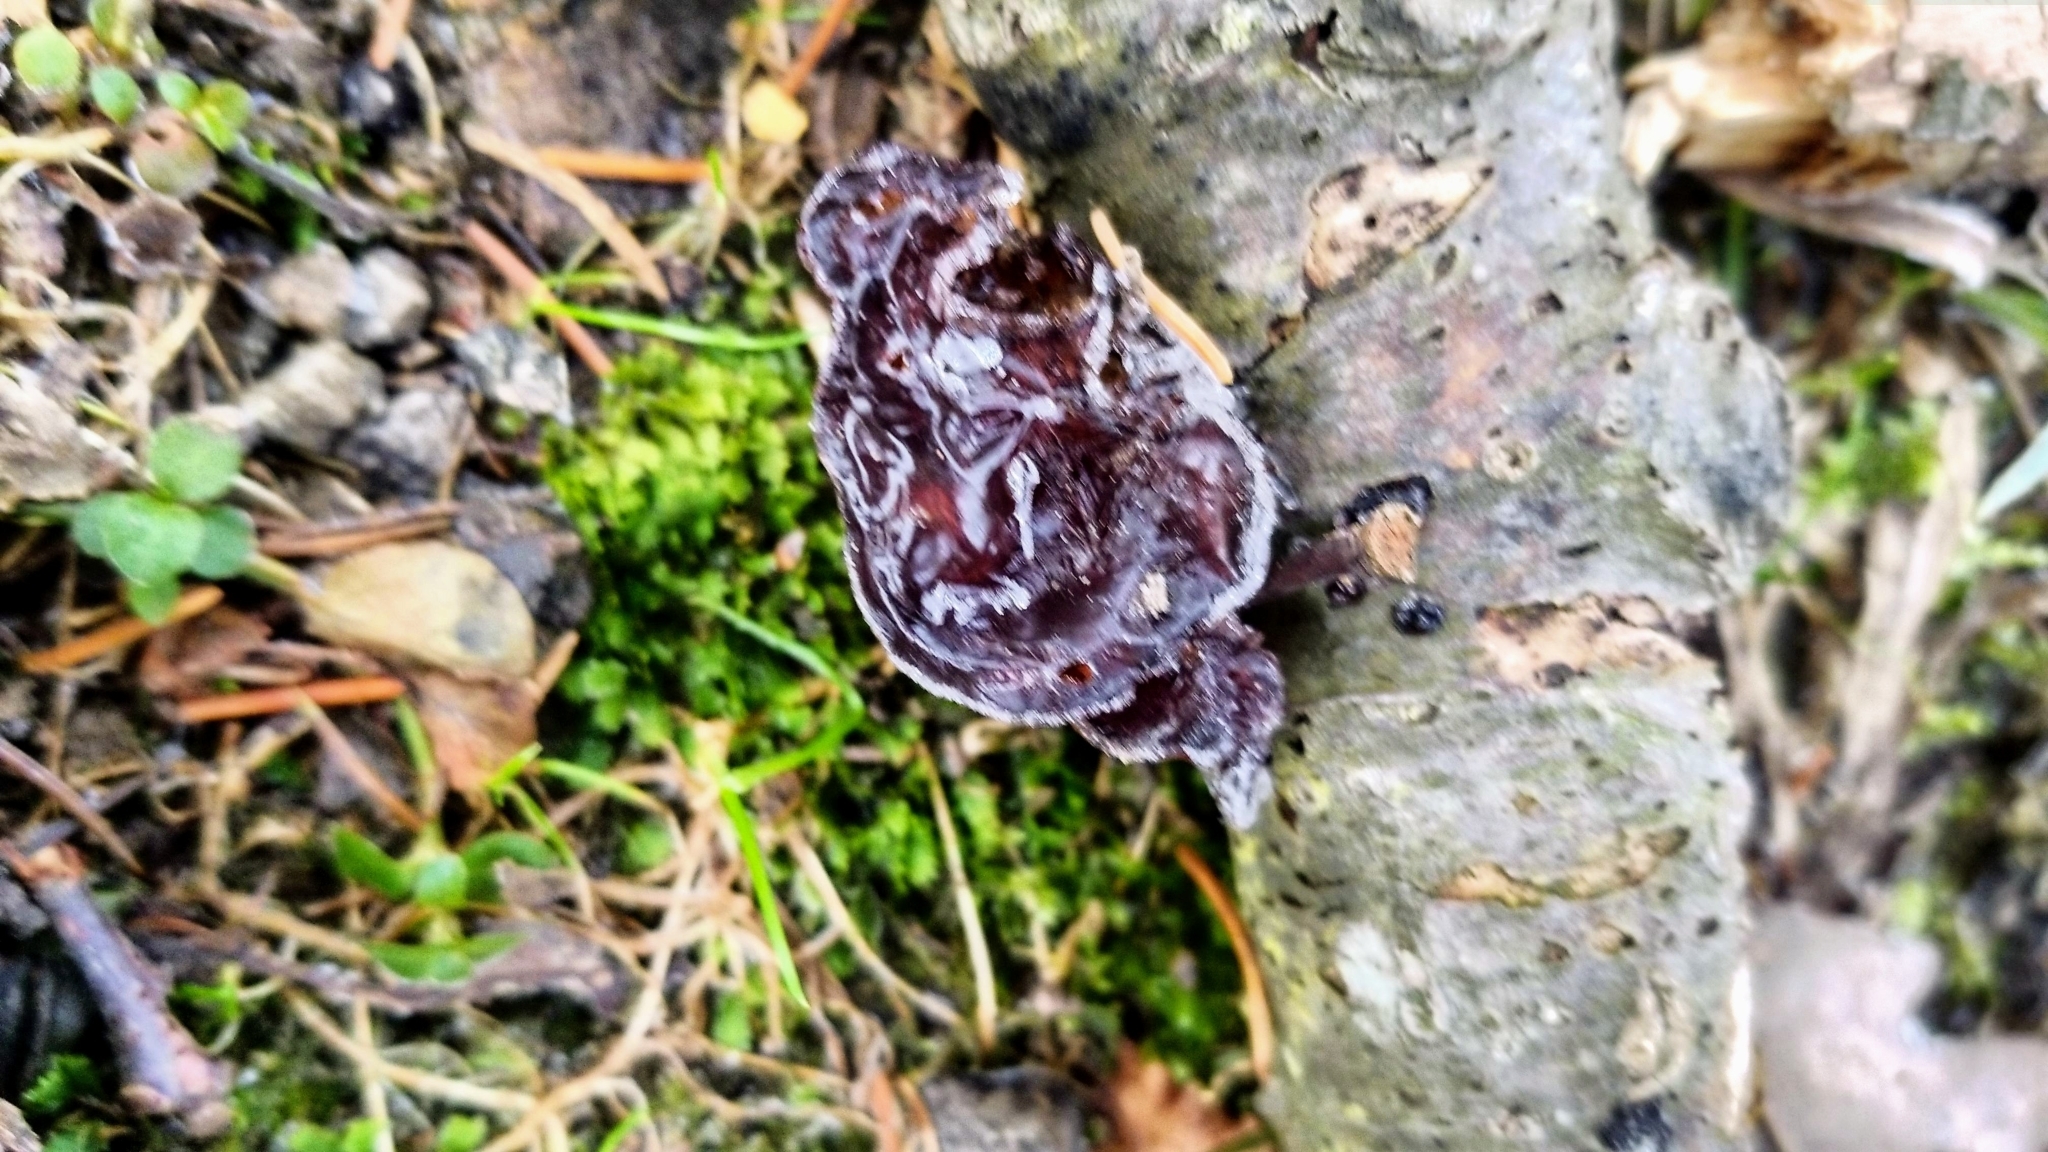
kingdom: Fungi
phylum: Basidiomycota
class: Agaricomycetes
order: Auriculariales
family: Auriculariaceae
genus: Exidia
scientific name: Exidia
